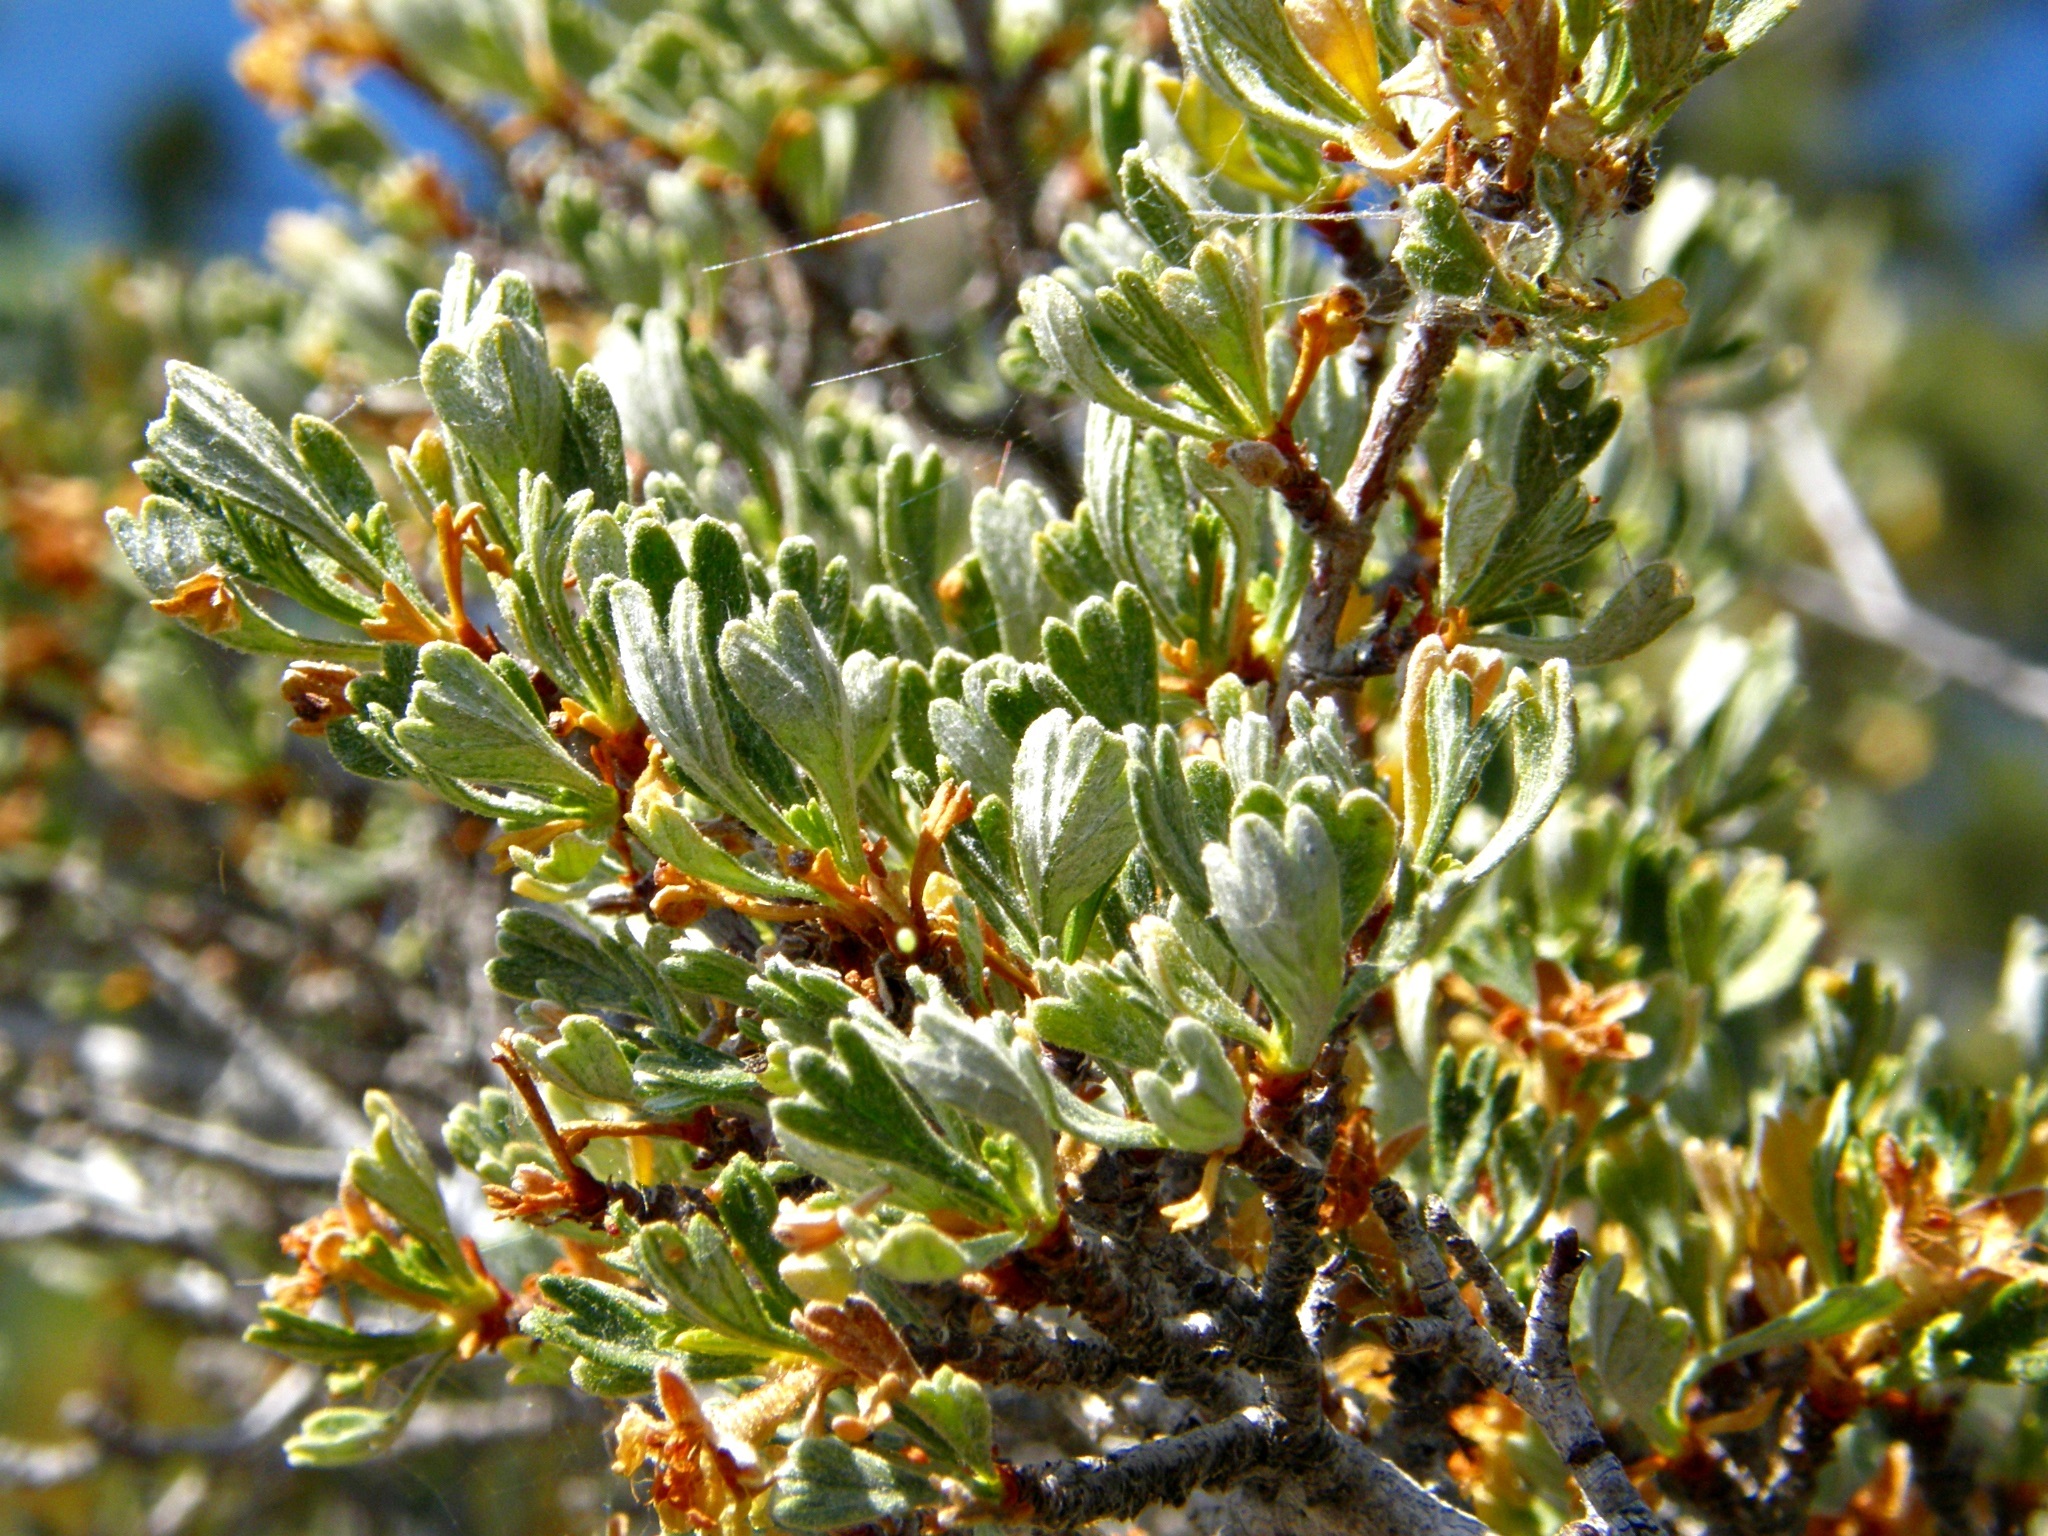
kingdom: Plantae
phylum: Tracheophyta
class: Magnoliopsida
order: Rosales
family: Rosaceae
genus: Purshia
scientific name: Purshia tridentata
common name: Antelope bitterbrush
